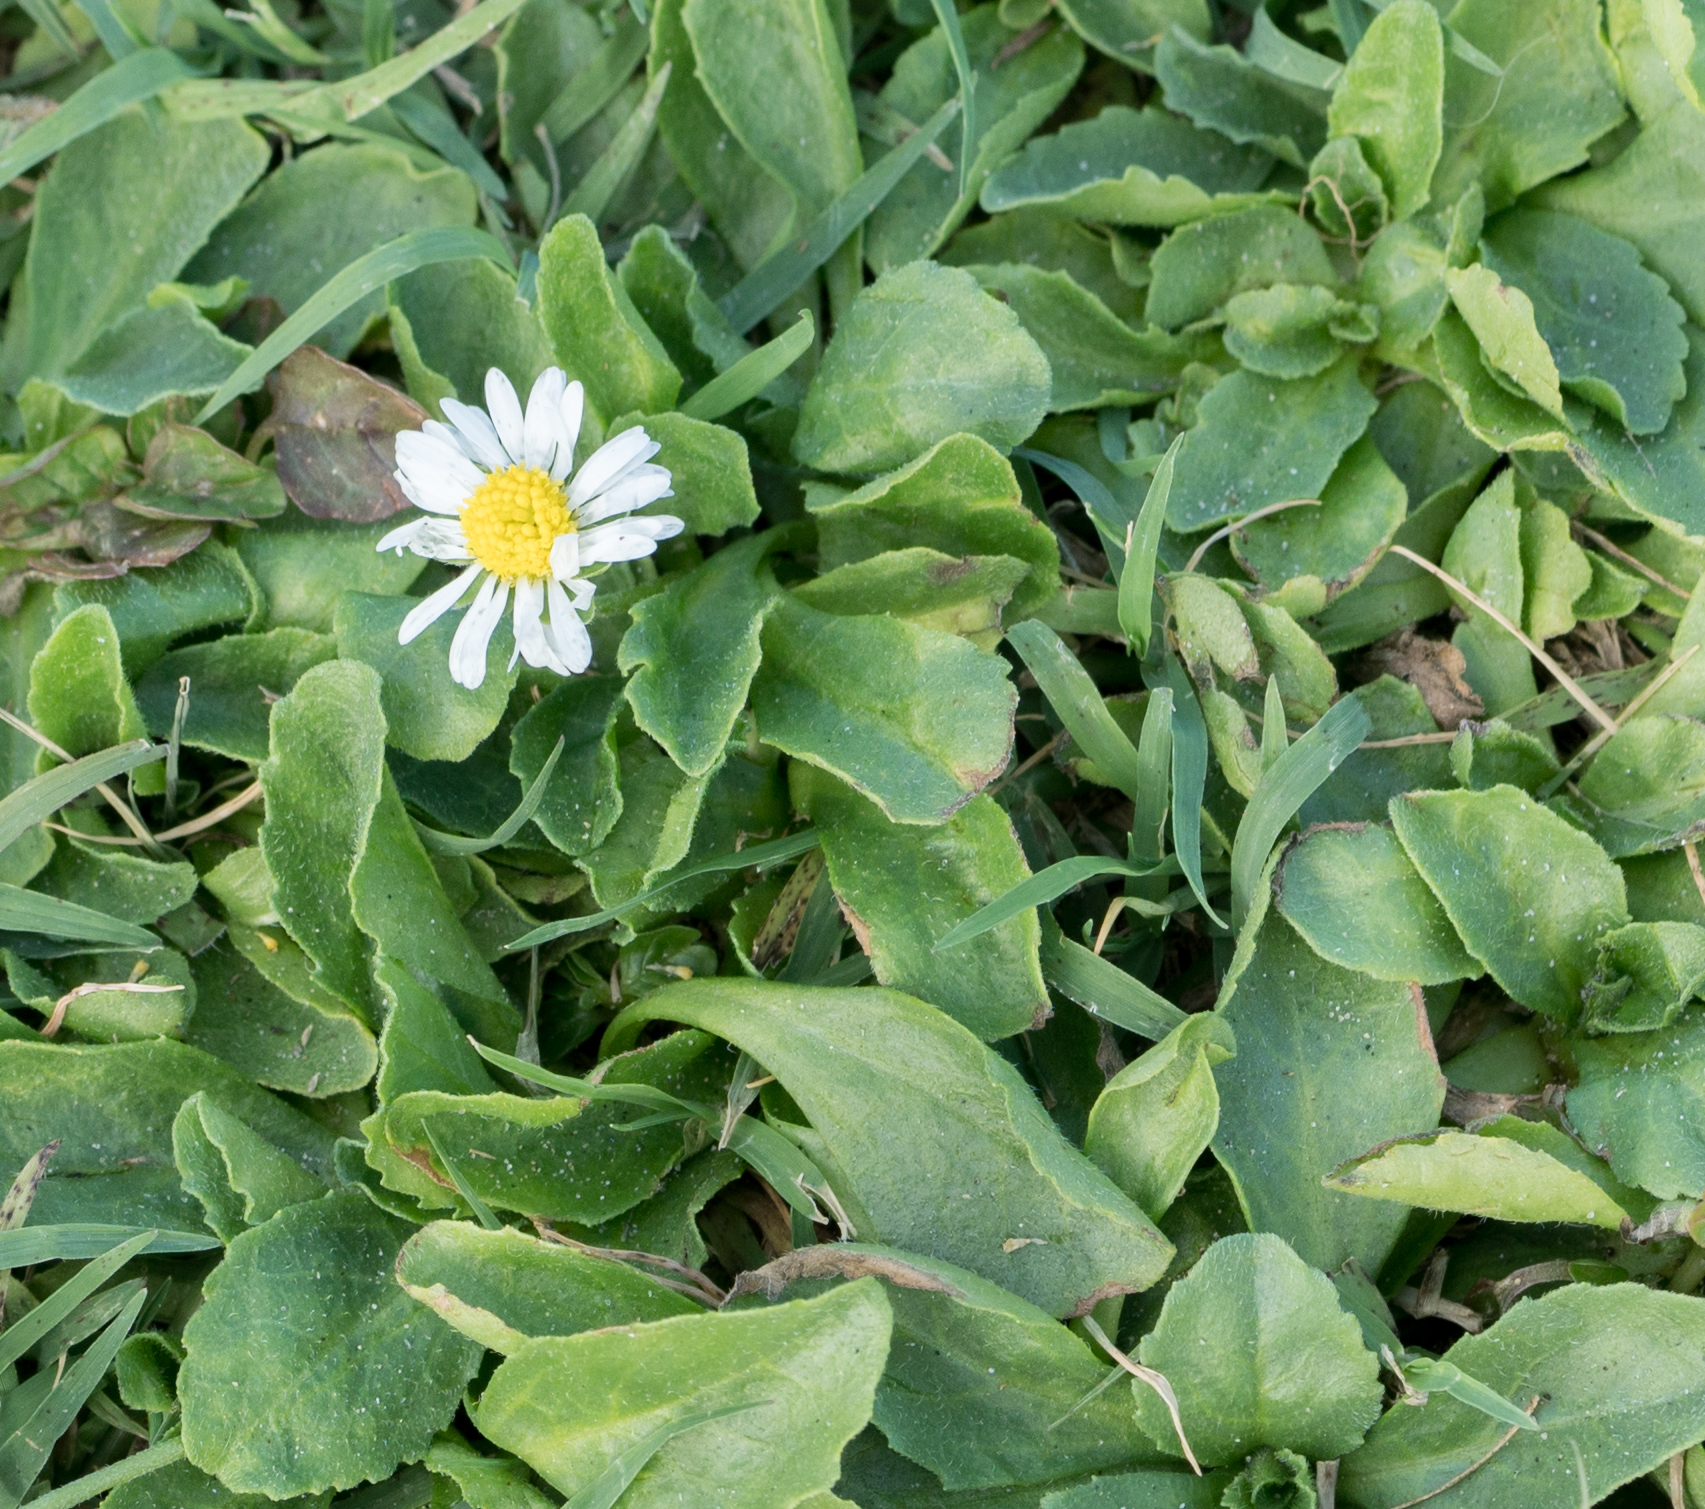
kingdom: Plantae
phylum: Tracheophyta
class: Magnoliopsida
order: Asterales
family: Asteraceae
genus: Bellis
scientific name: Bellis perennis
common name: Lawndaisy
